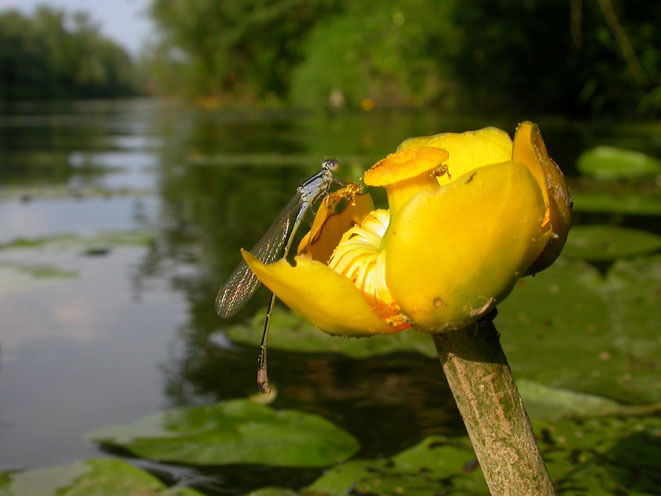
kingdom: Animalia
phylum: Arthropoda
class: Insecta
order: Odonata
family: Coenagrionidae
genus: Ischnura
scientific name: Ischnura elegans
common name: Blue-tailed damselfly
